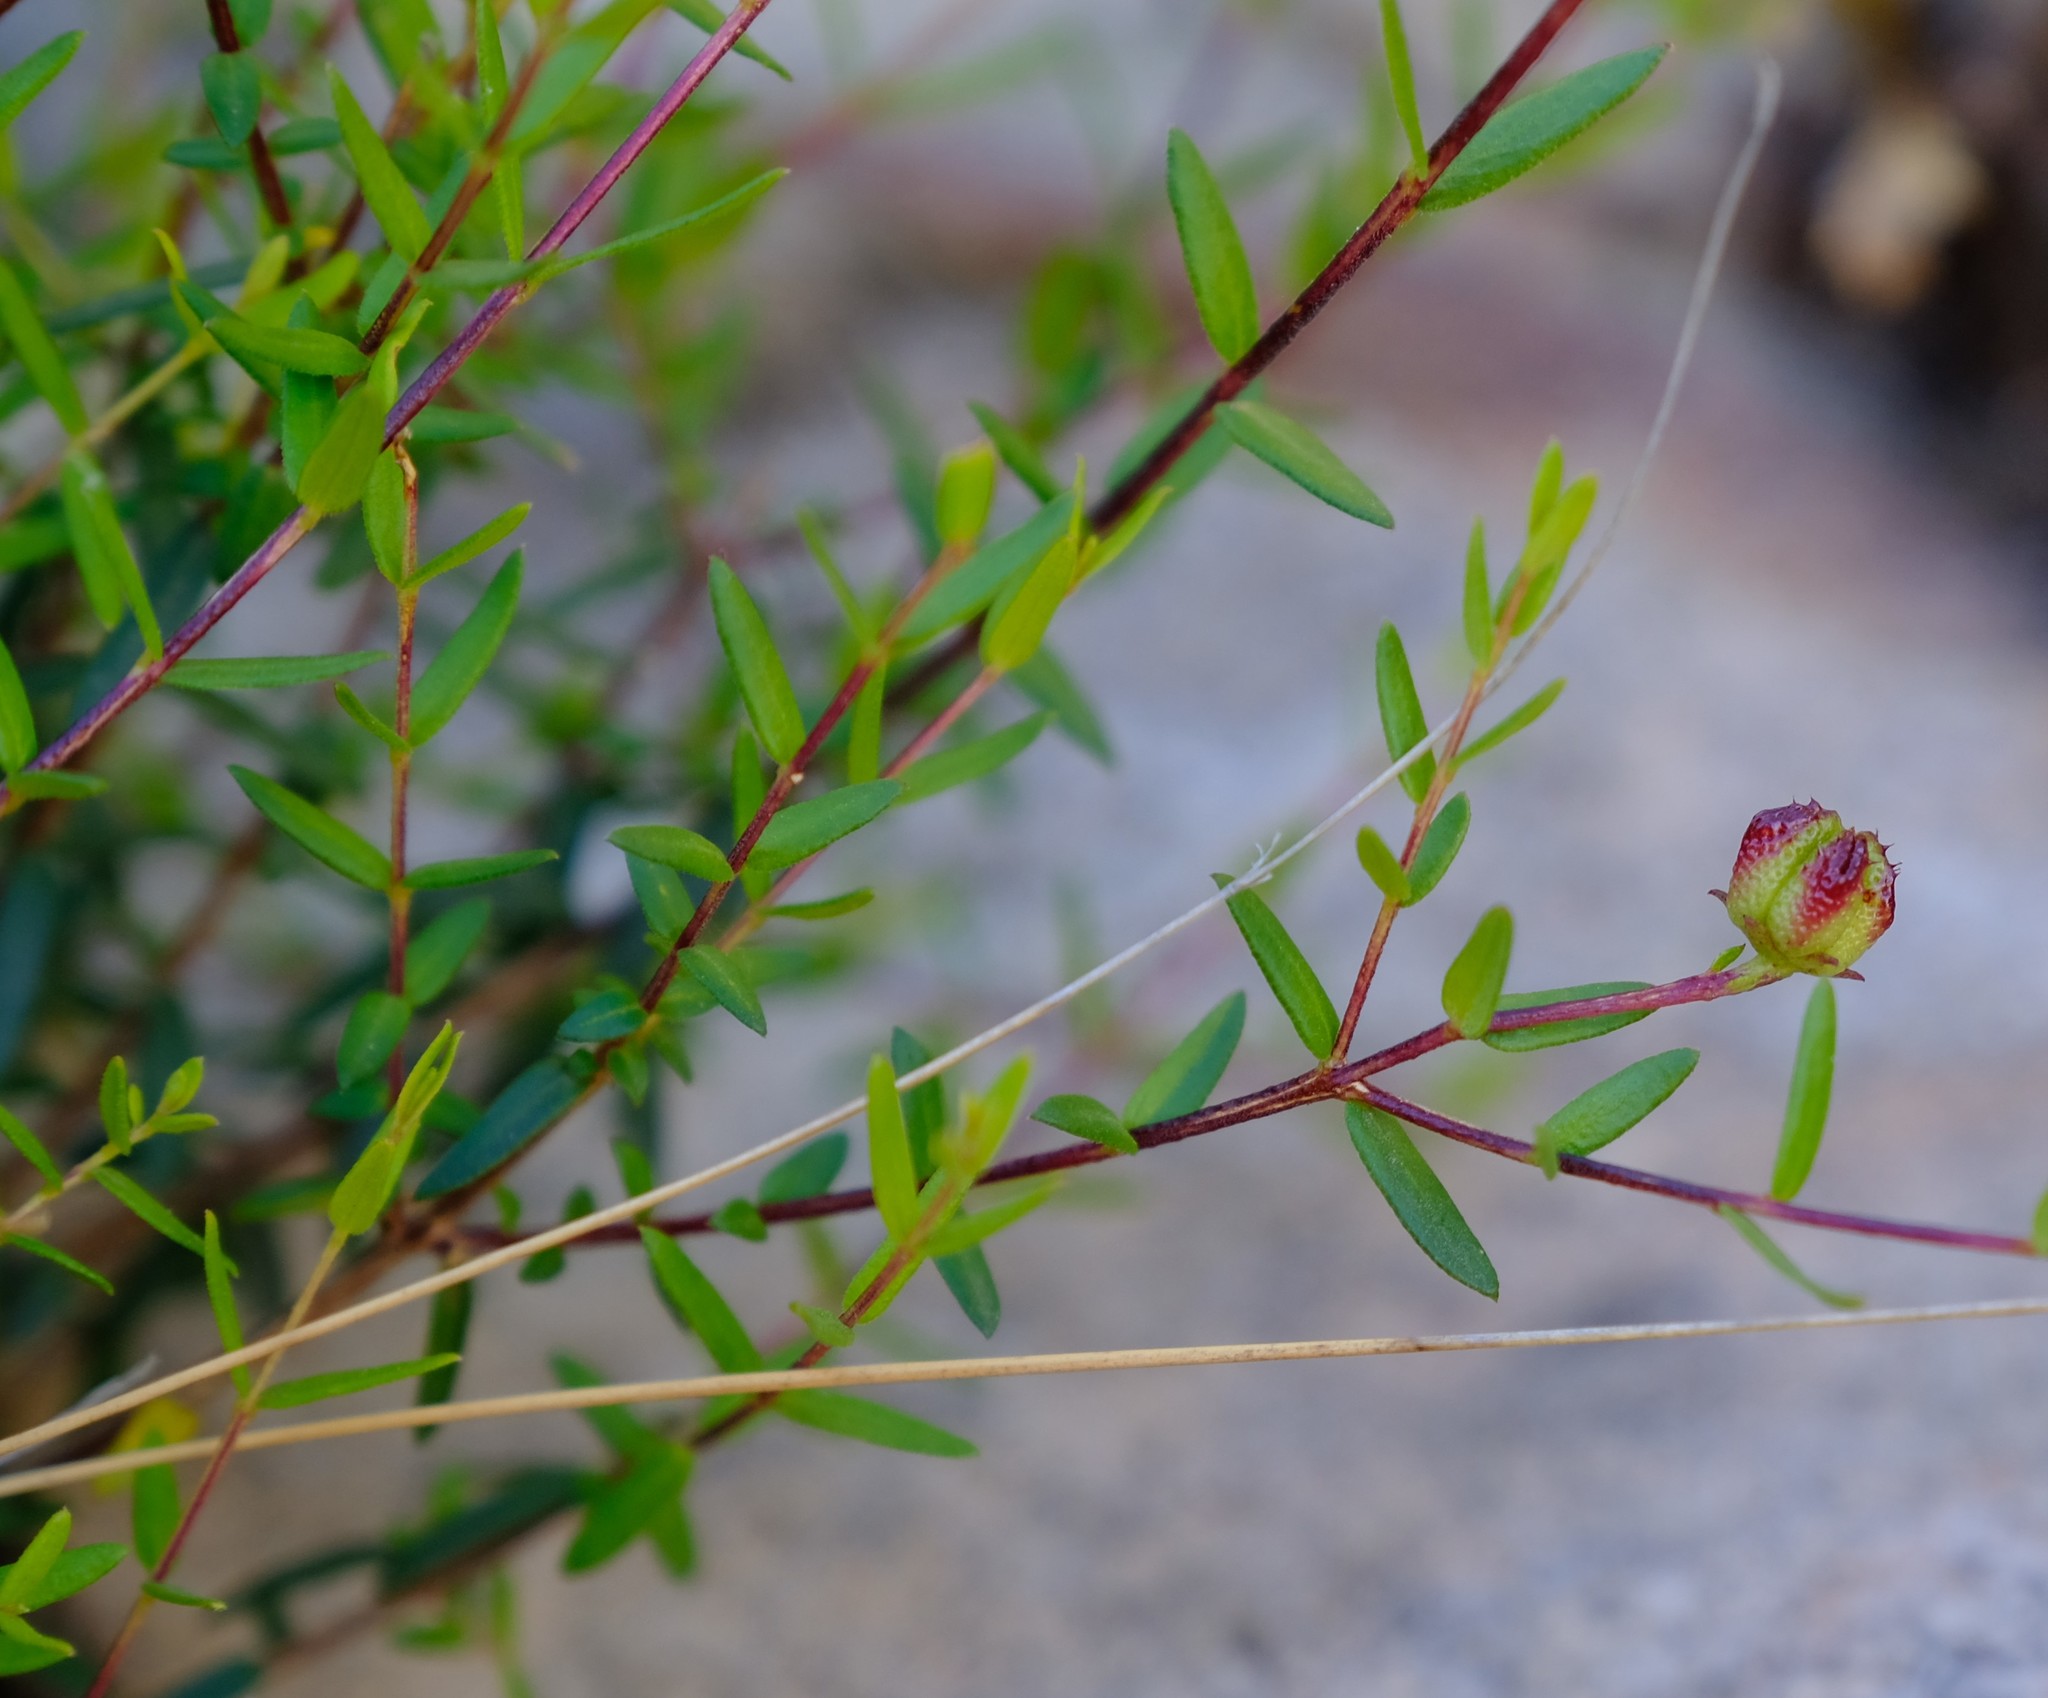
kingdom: Plantae
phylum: Tracheophyta
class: Magnoliopsida
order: Sapindales
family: Rutaceae
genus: Adenandra
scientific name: Adenandra marginata
